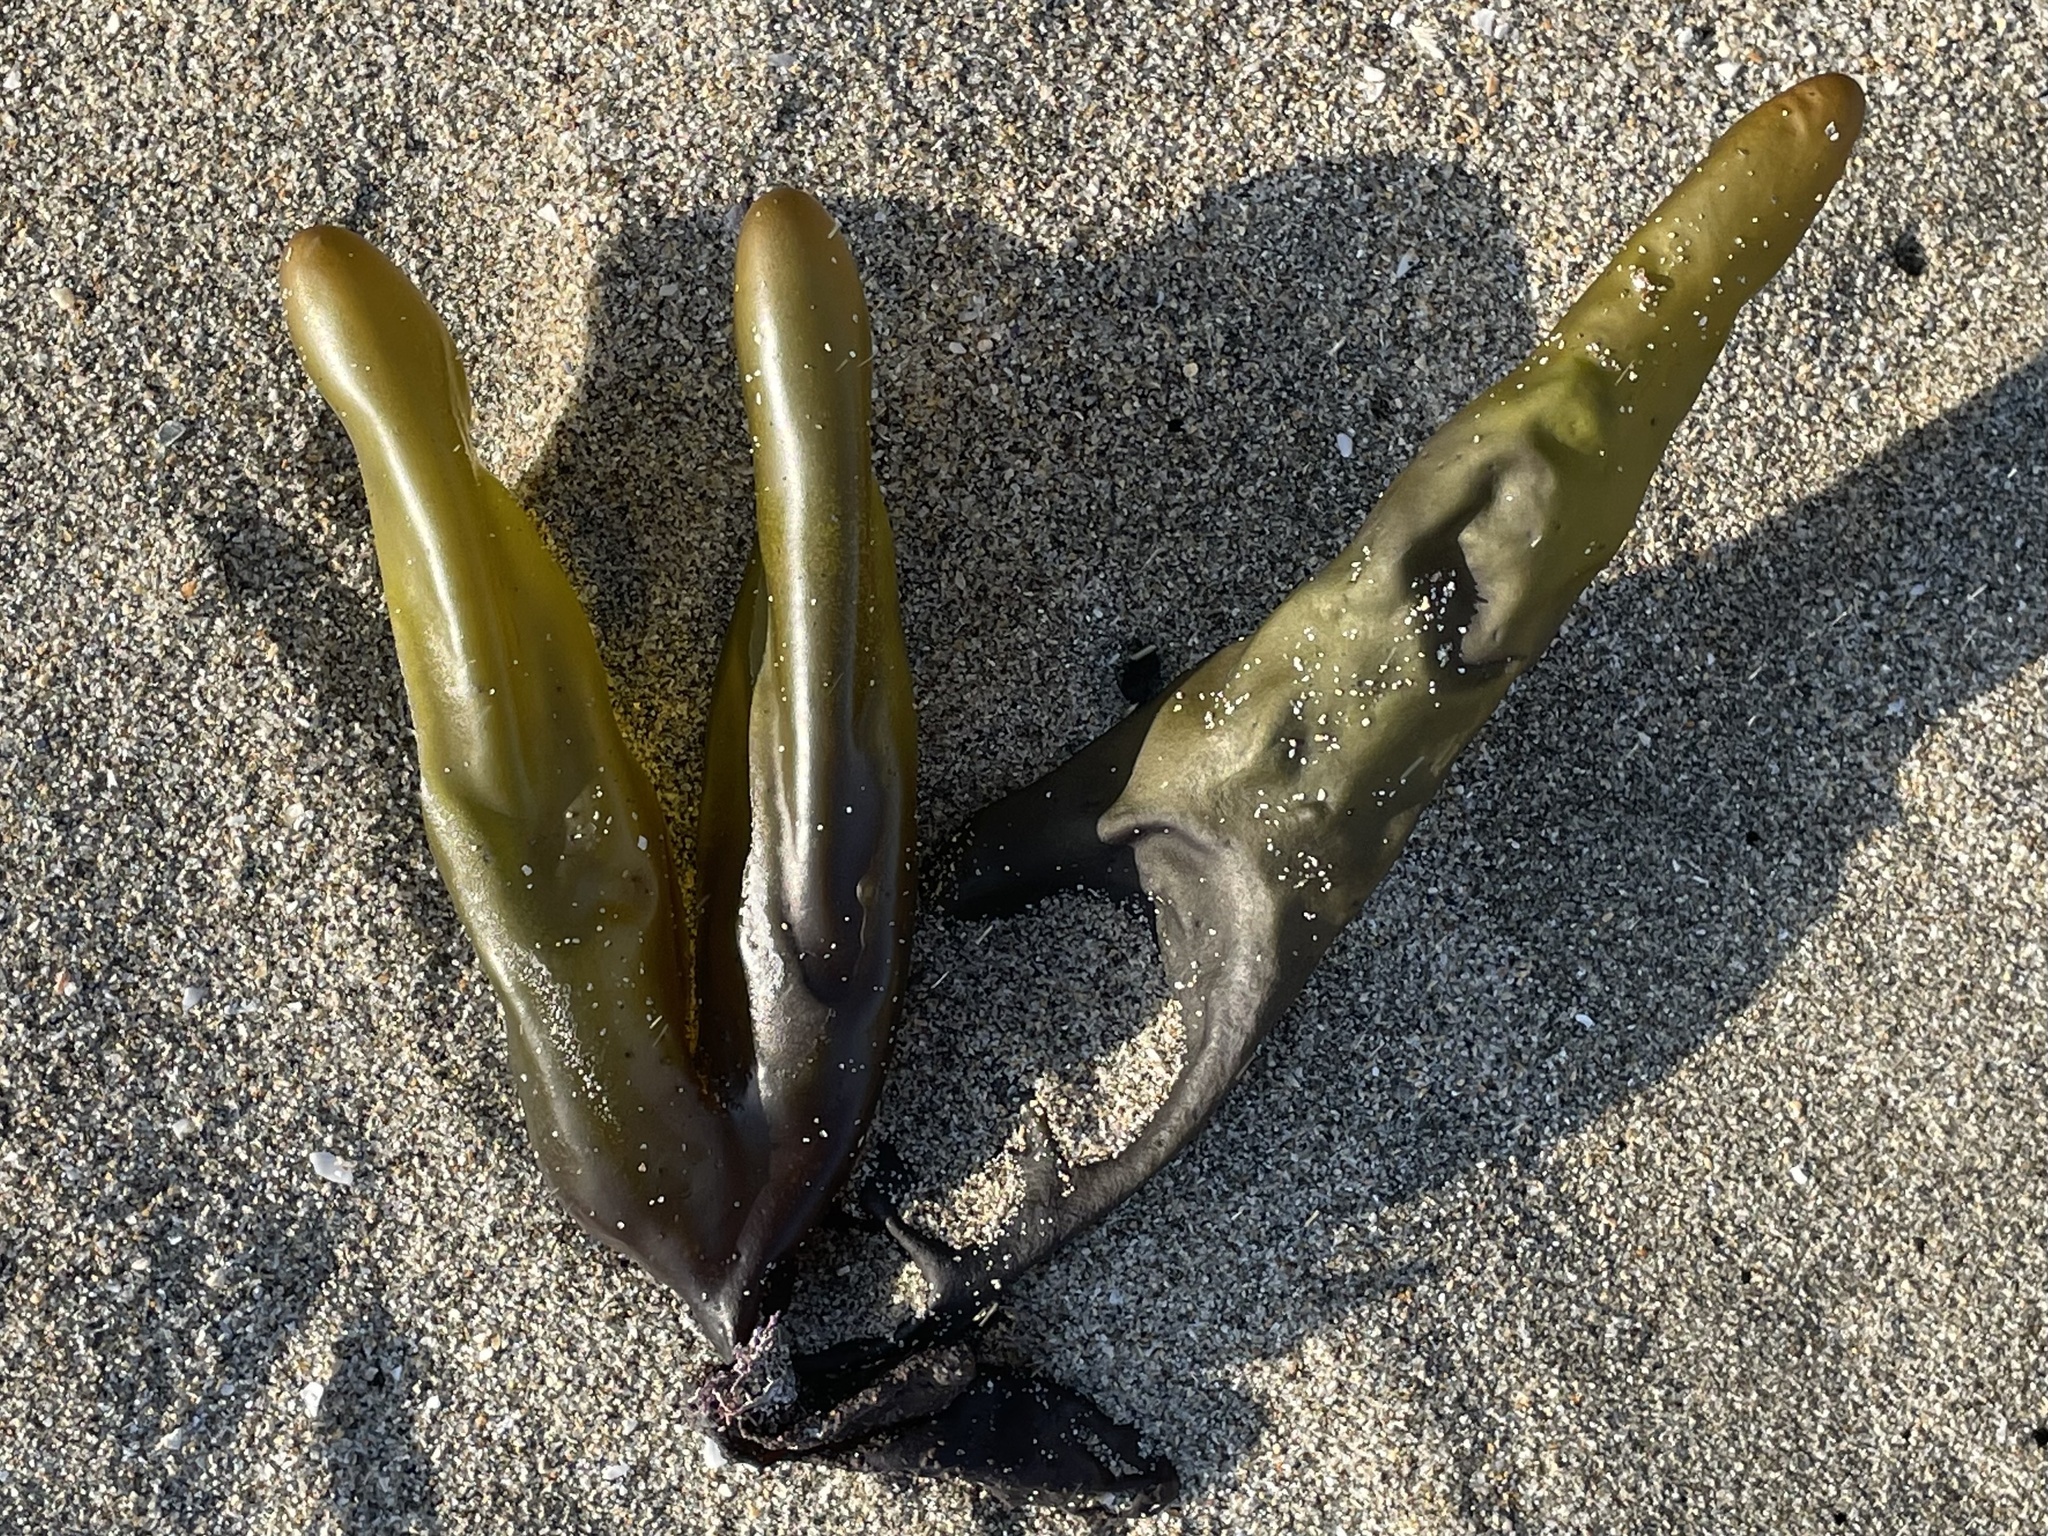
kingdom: Plantae
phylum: Rhodophyta
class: Florideophyceae
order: Palmariales
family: Palmariaceae
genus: Halosaccion
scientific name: Halosaccion glandiforme
